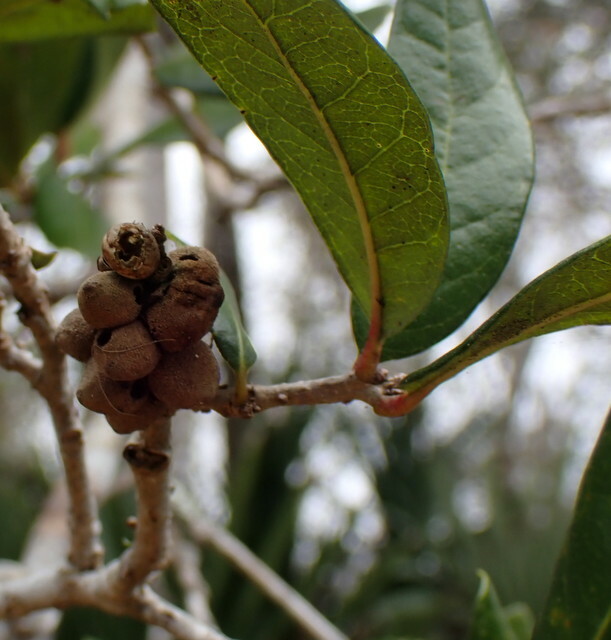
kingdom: Animalia
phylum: Arthropoda
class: Insecta
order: Hymenoptera
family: Cynipidae
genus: Disholcaspis
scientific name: Disholcaspis
